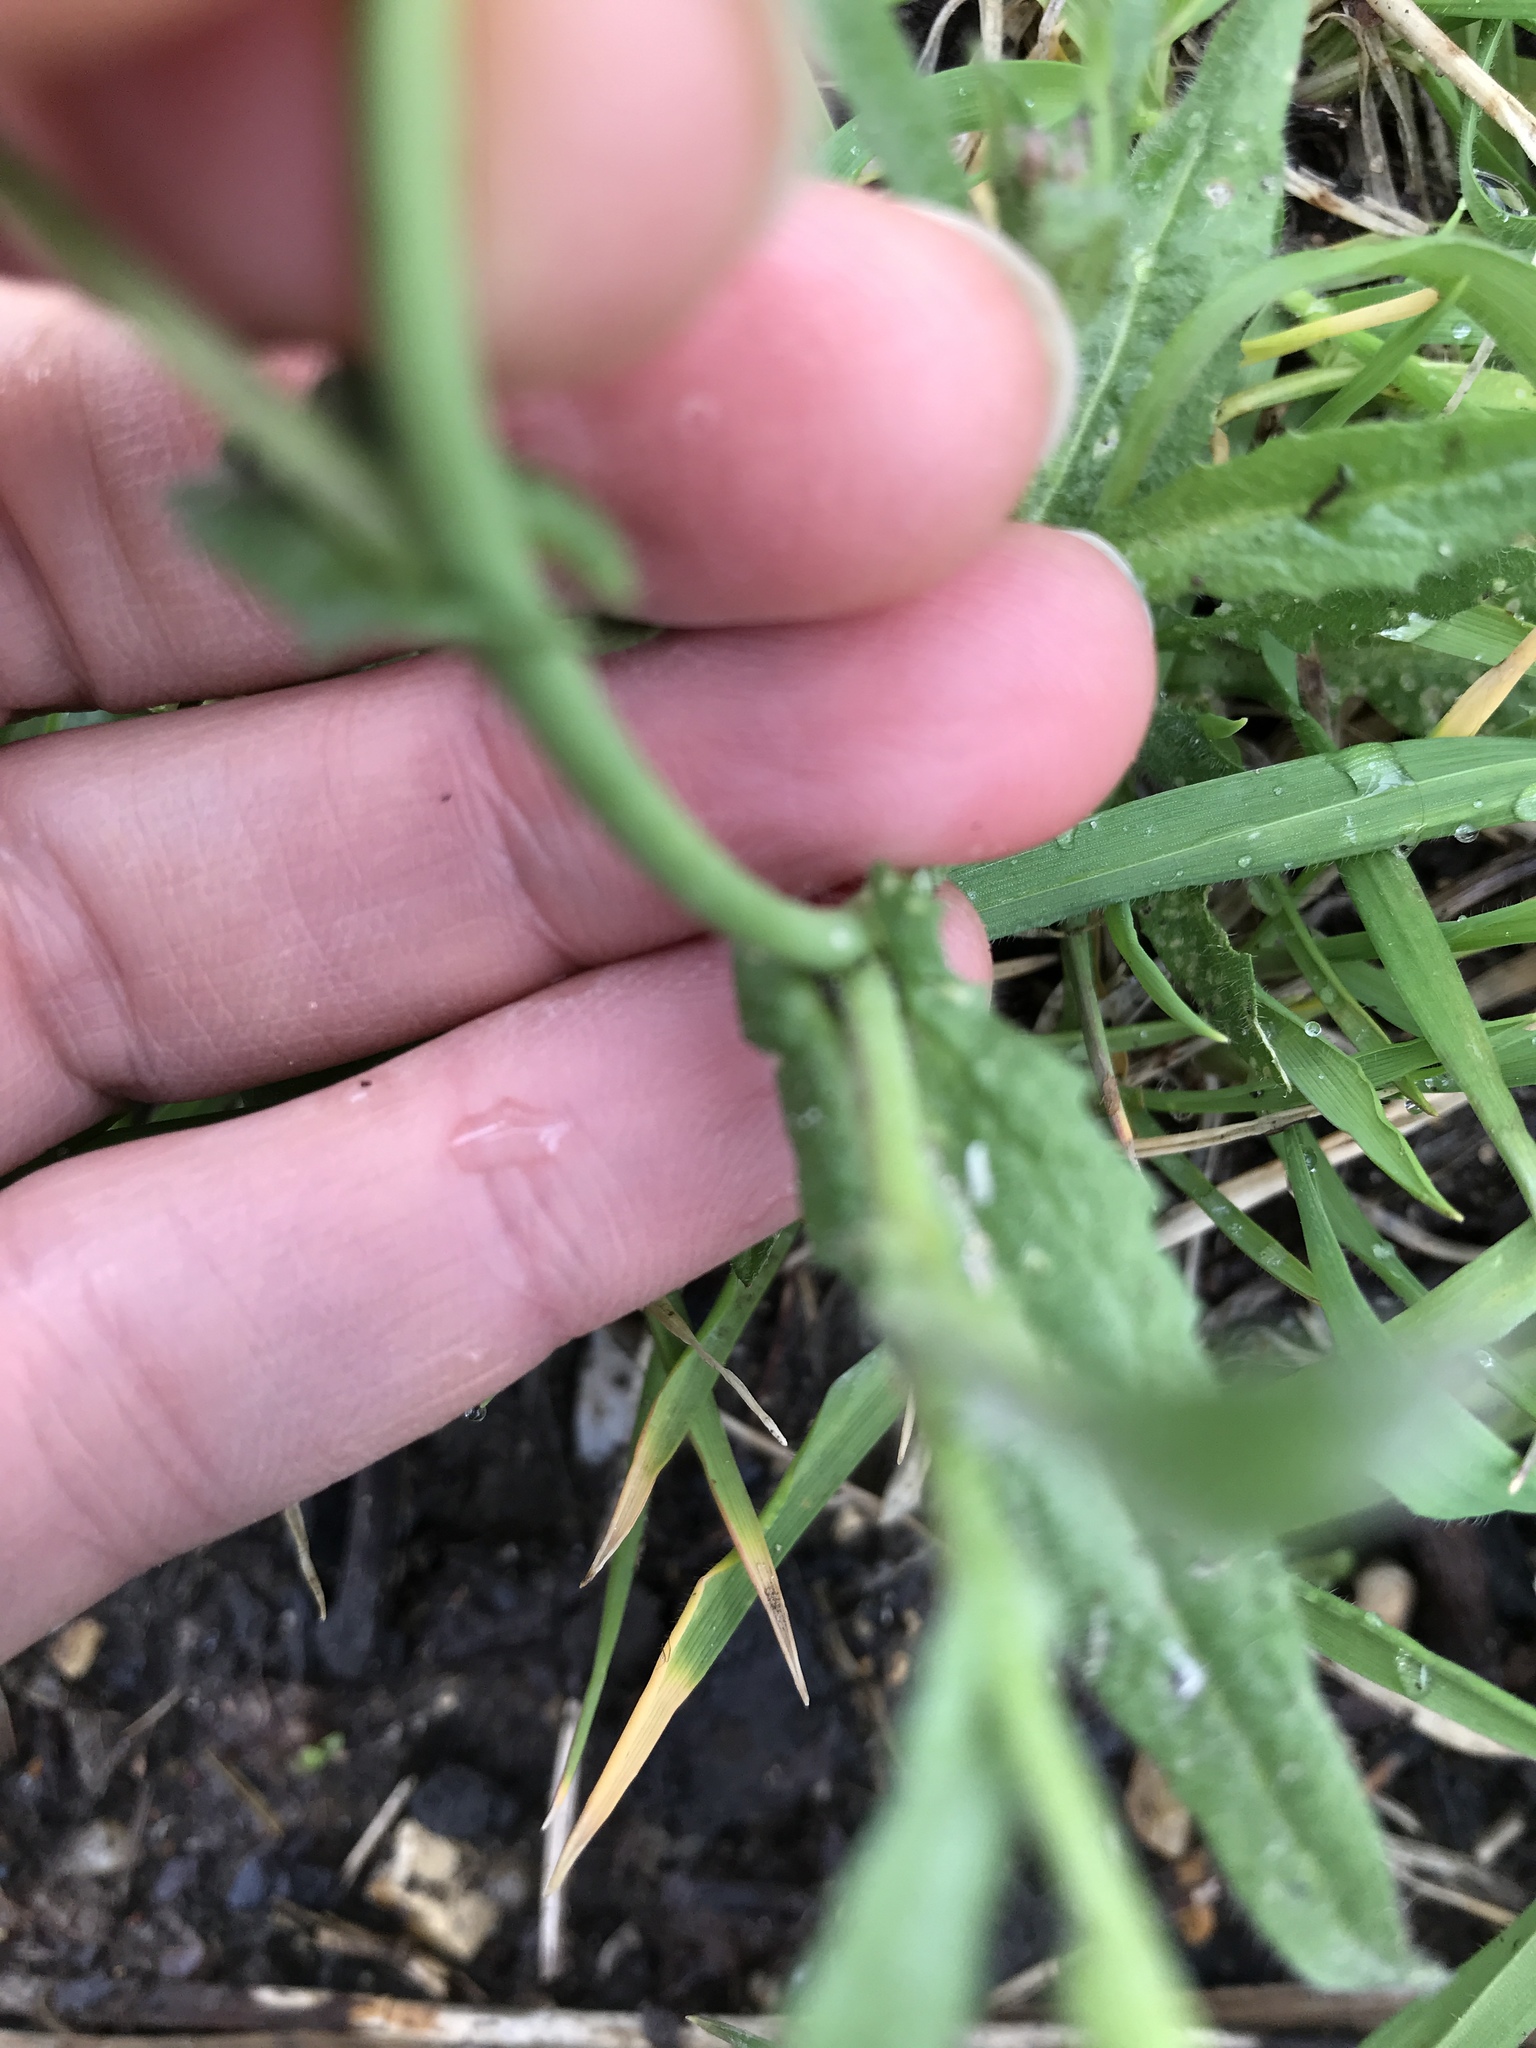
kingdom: Plantae
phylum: Tracheophyta
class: Magnoliopsida
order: Brassicales
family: Brassicaceae
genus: Capsella
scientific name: Capsella bursa-pastoris
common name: Shepherd's purse
